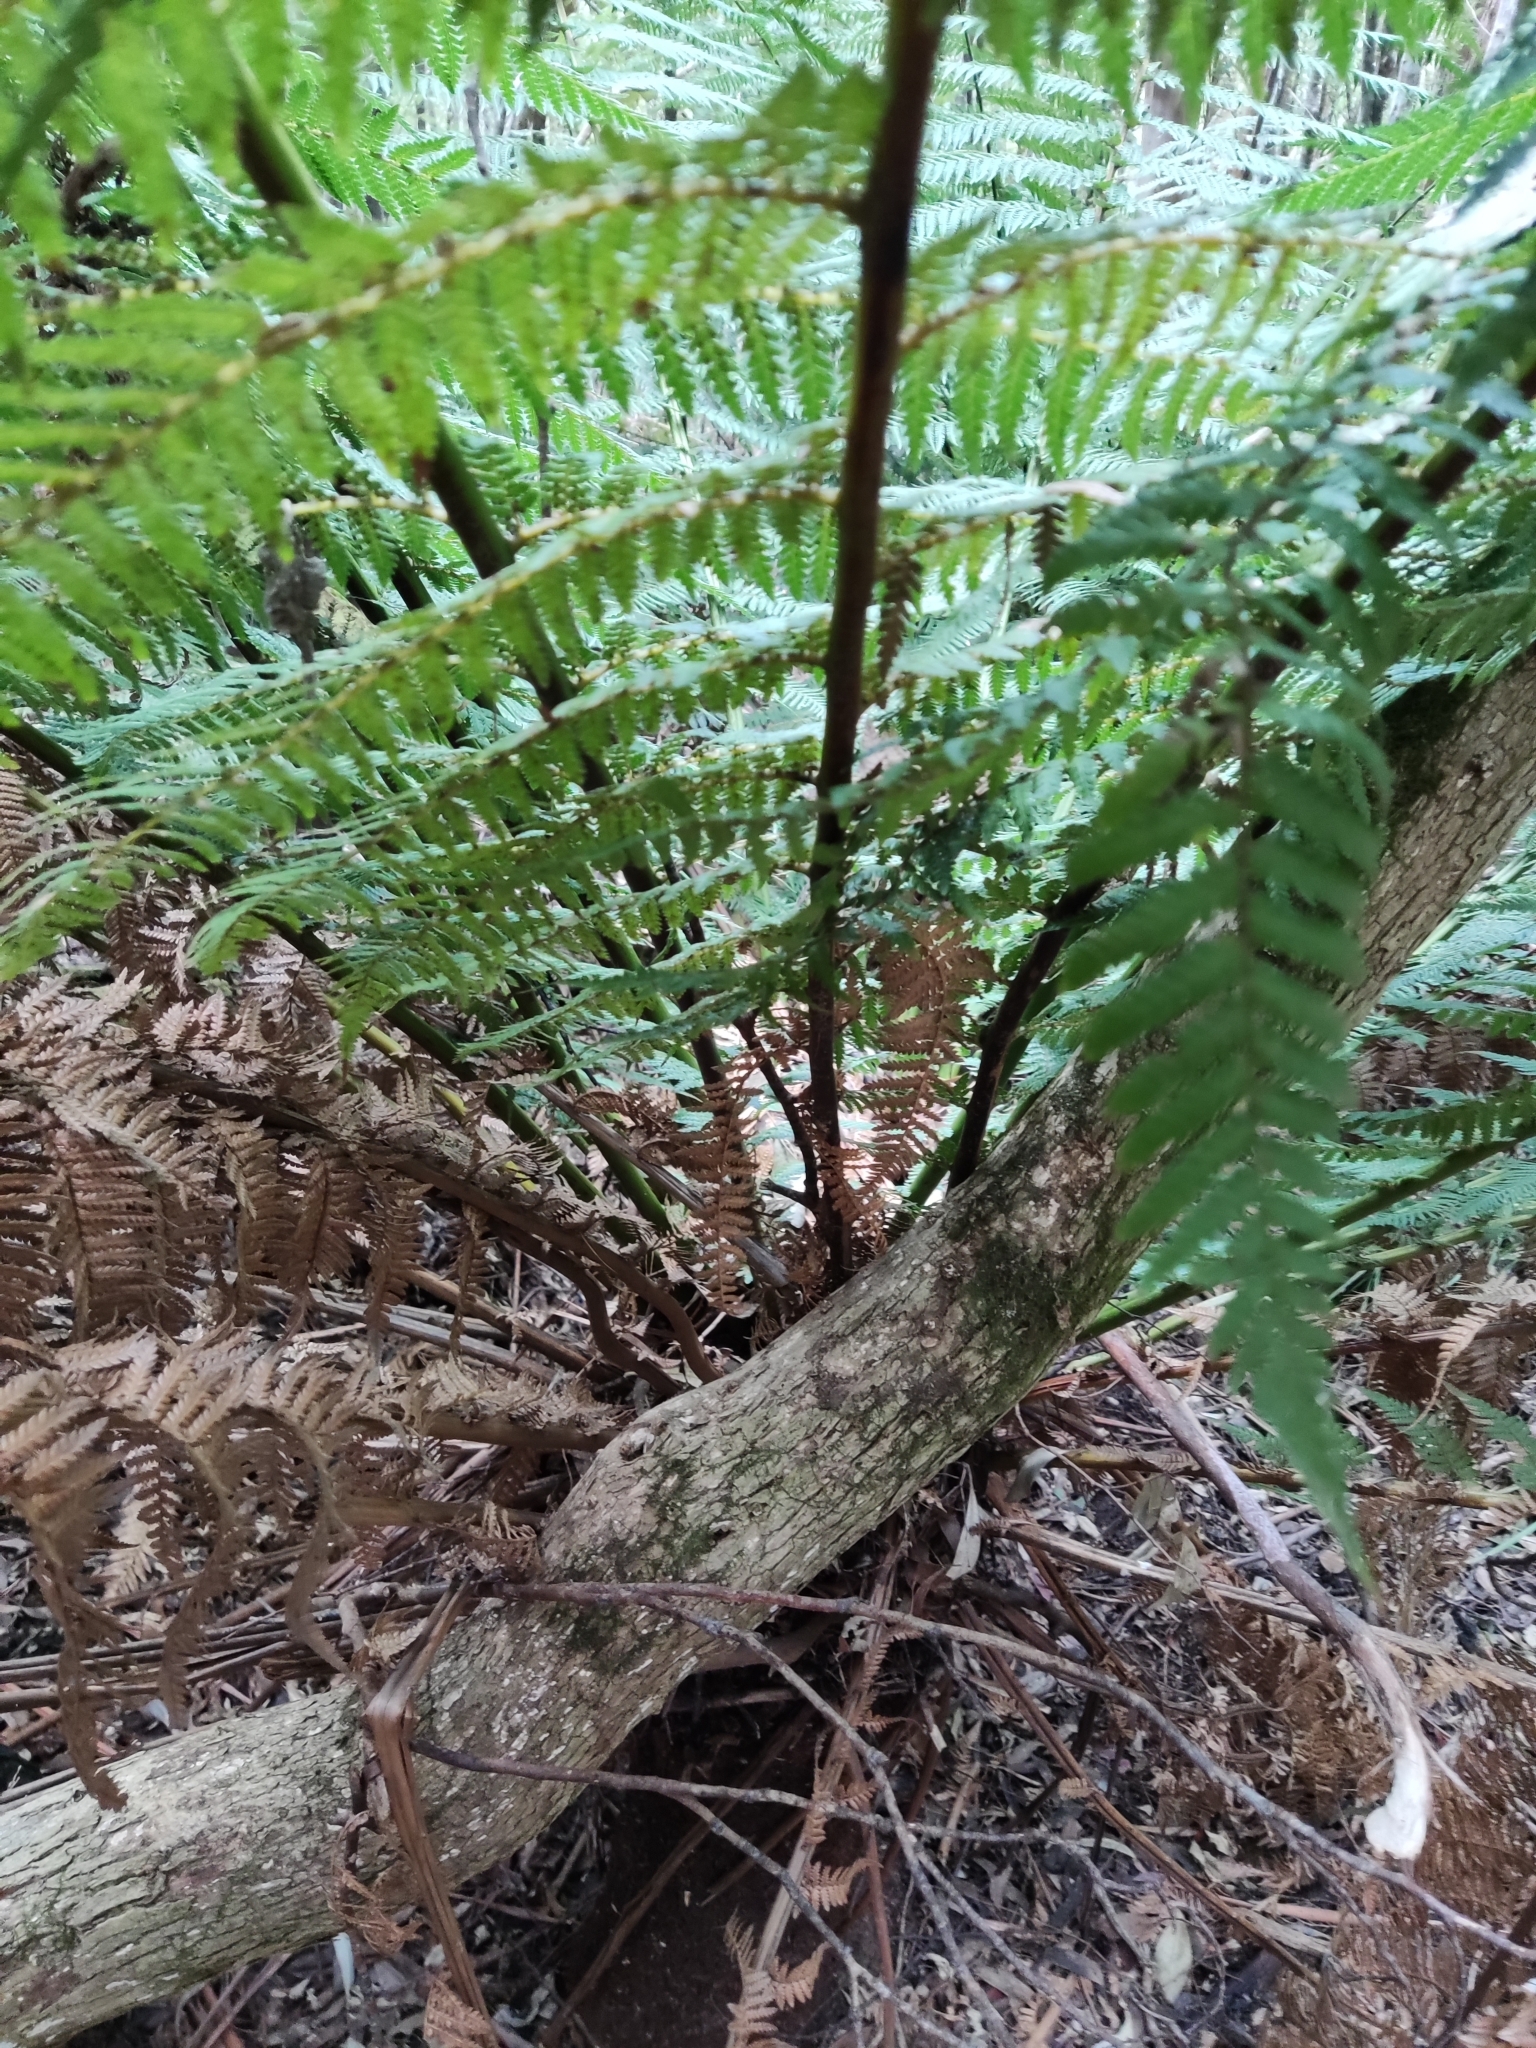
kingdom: Plantae
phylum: Tracheophyta
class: Polypodiopsida
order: Cyatheales
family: Dicksoniaceae
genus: Dicksonia
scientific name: Dicksonia antarctica
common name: Australian treefern
